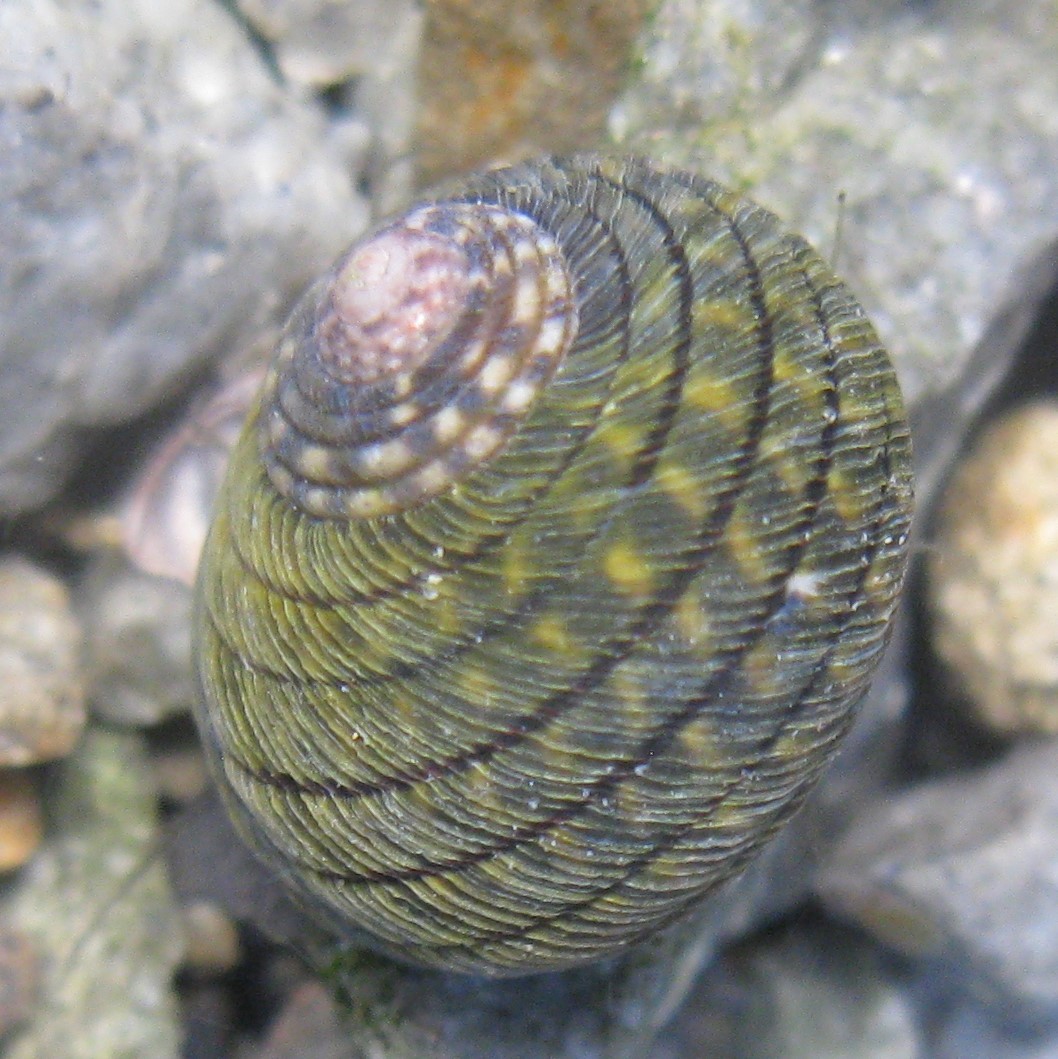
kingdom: Animalia
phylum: Mollusca
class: Gastropoda
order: Trochida
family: Trochidae
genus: Diloma
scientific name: Diloma aethiops
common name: Scorched monodont
